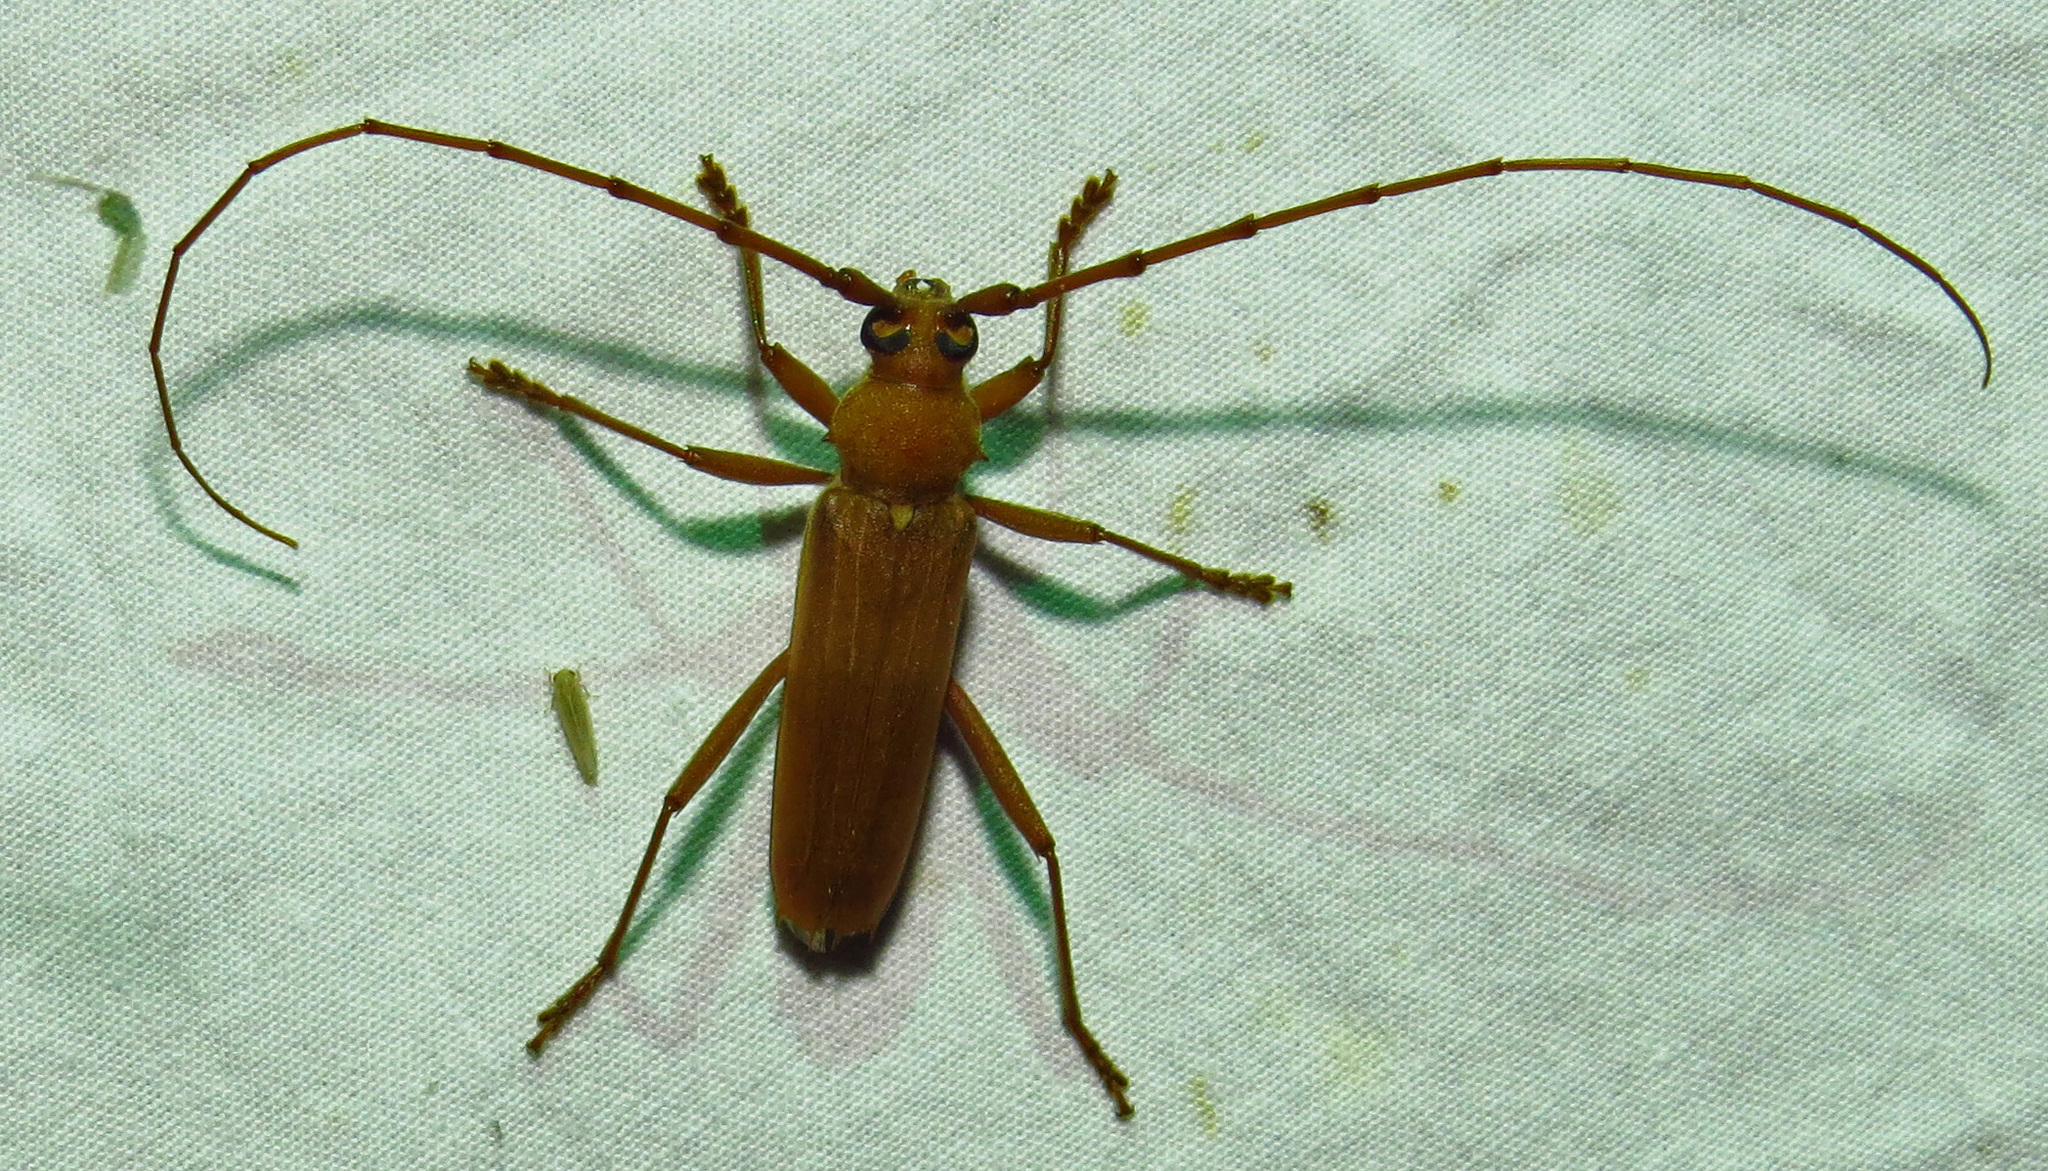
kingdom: Animalia
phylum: Arthropoda
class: Insecta
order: Coleoptera
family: Cerambycidae
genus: Knulliana
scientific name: Knulliana cincta
